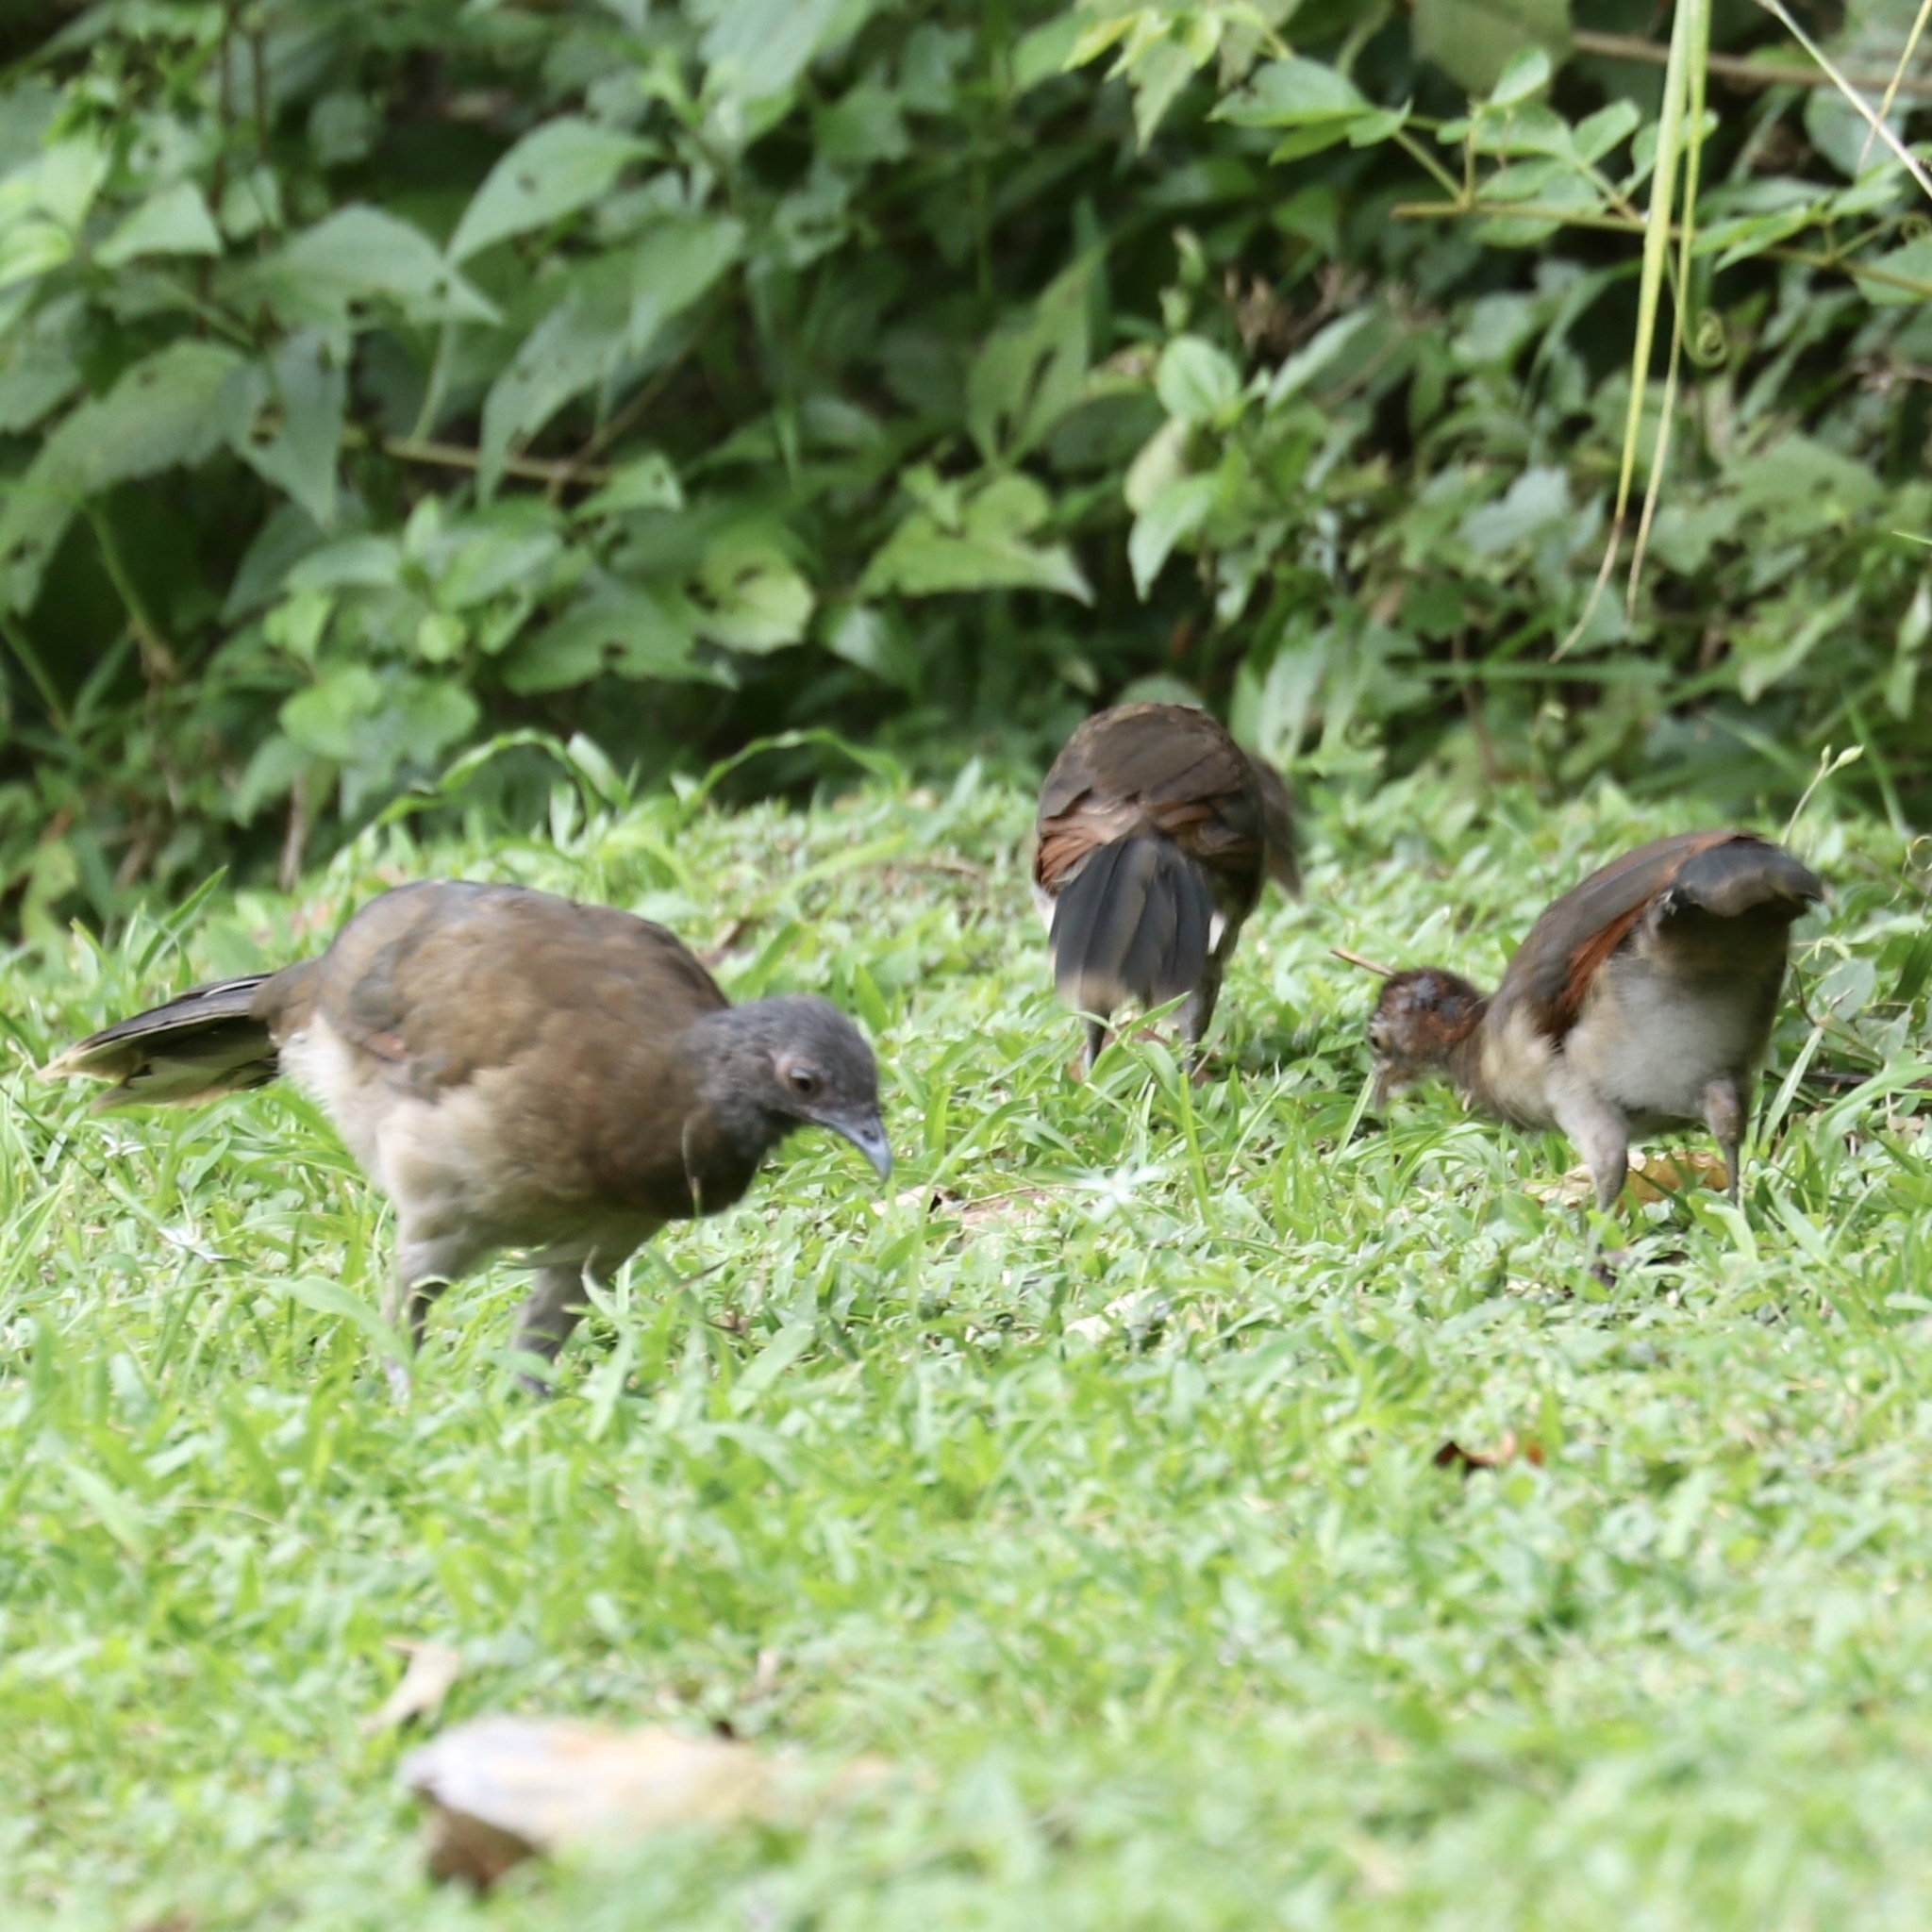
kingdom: Animalia
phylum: Chordata
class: Aves
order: Galliformes
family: Cracidae
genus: Ortalis
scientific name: Ortalis cinereiceps
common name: Grey-headed chachalaca
